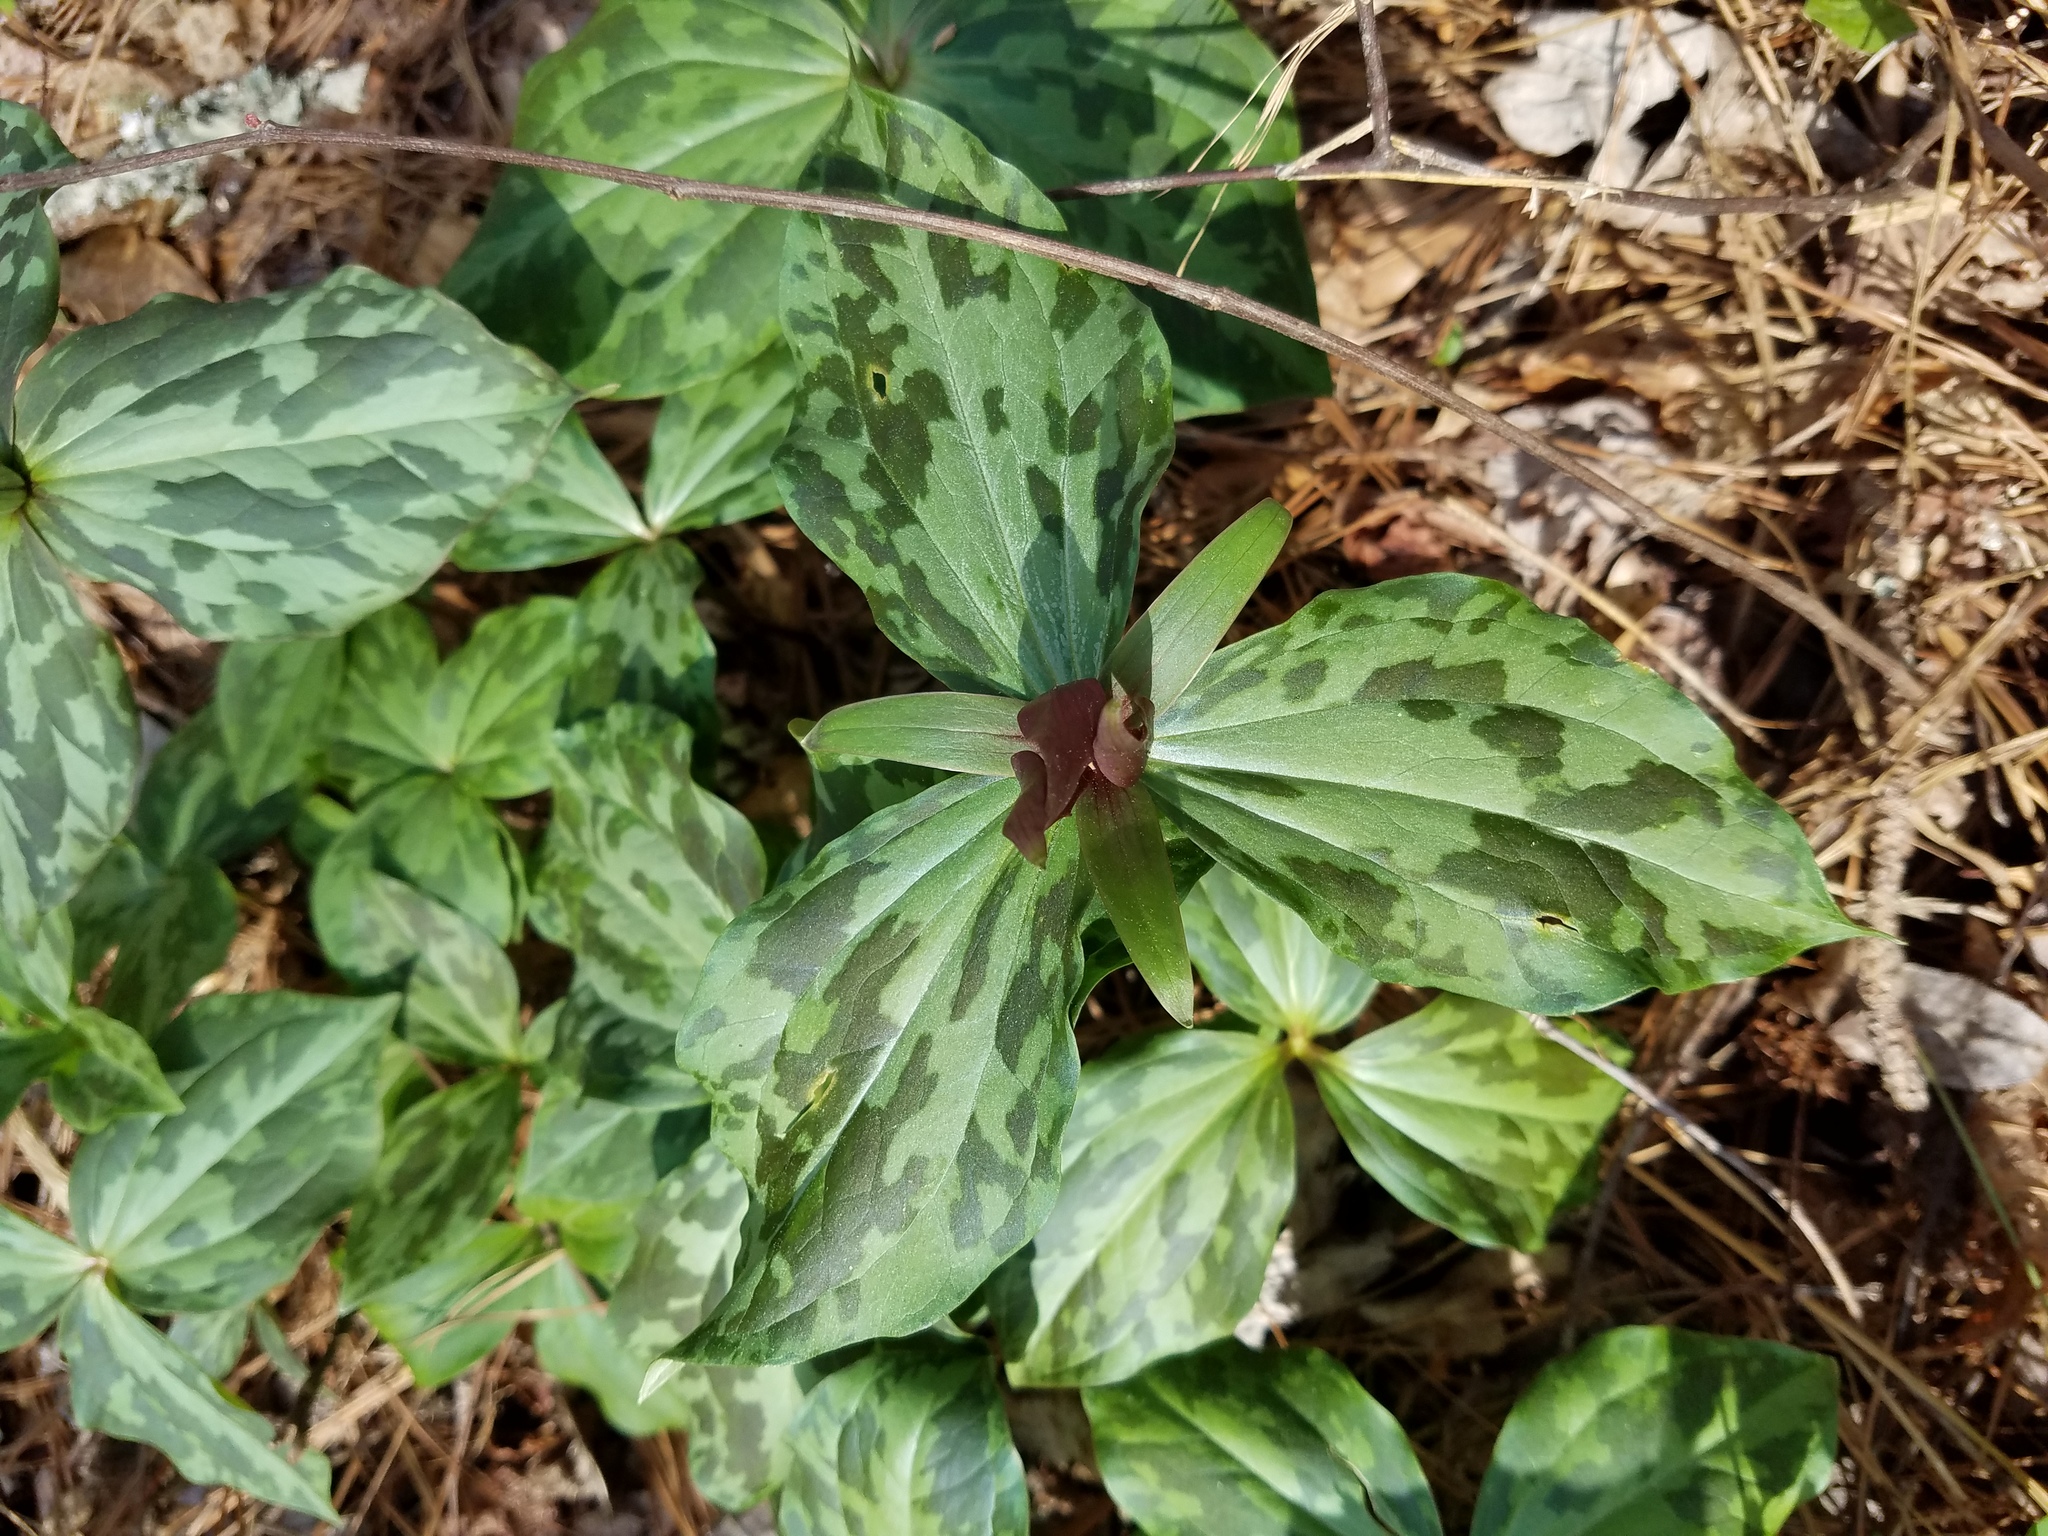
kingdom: Plantae
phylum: Tracheophyta
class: Liliopsida
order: Liliales
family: Melanthiaceae
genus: Trillium
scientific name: Trillium cuneatum
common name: Cuneate trillium
